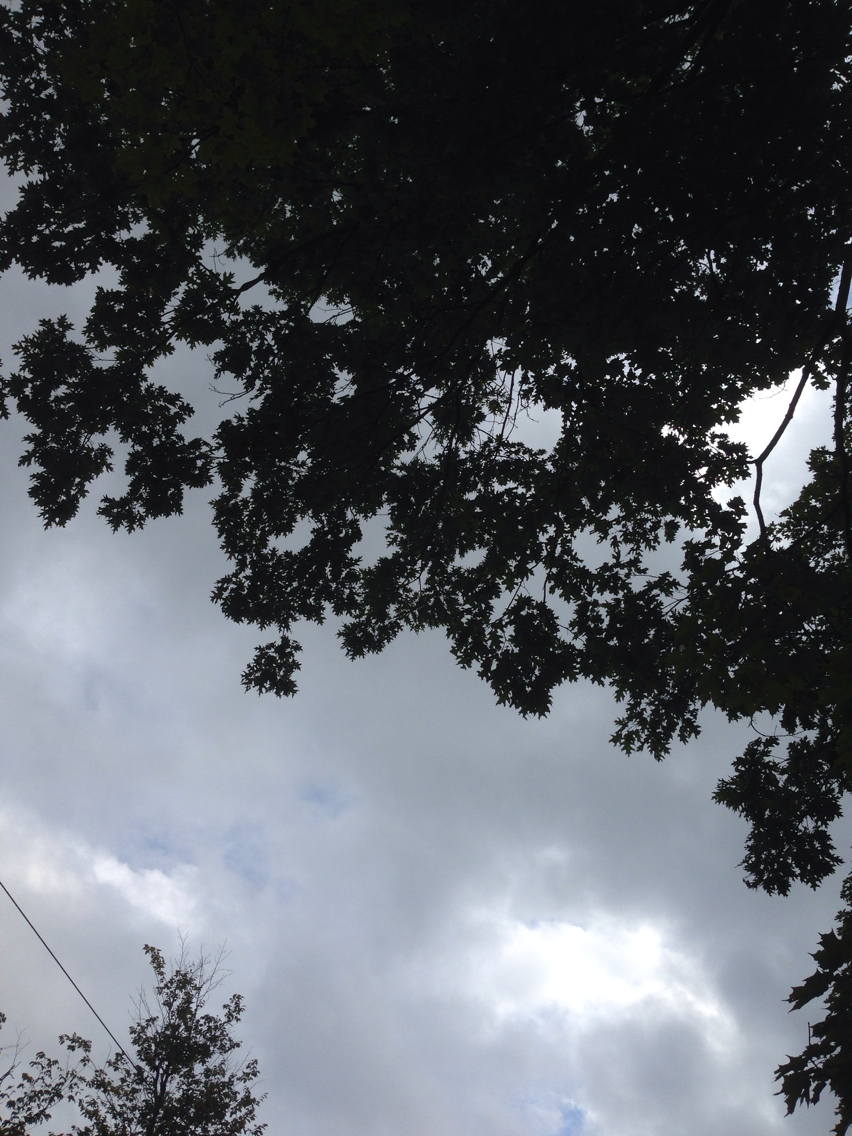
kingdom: Plantae
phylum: Tracheophyta
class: Magnoliopsida
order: Fagales
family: Fagaceae
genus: Quercus
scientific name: Quercus rubra
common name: Red oak
